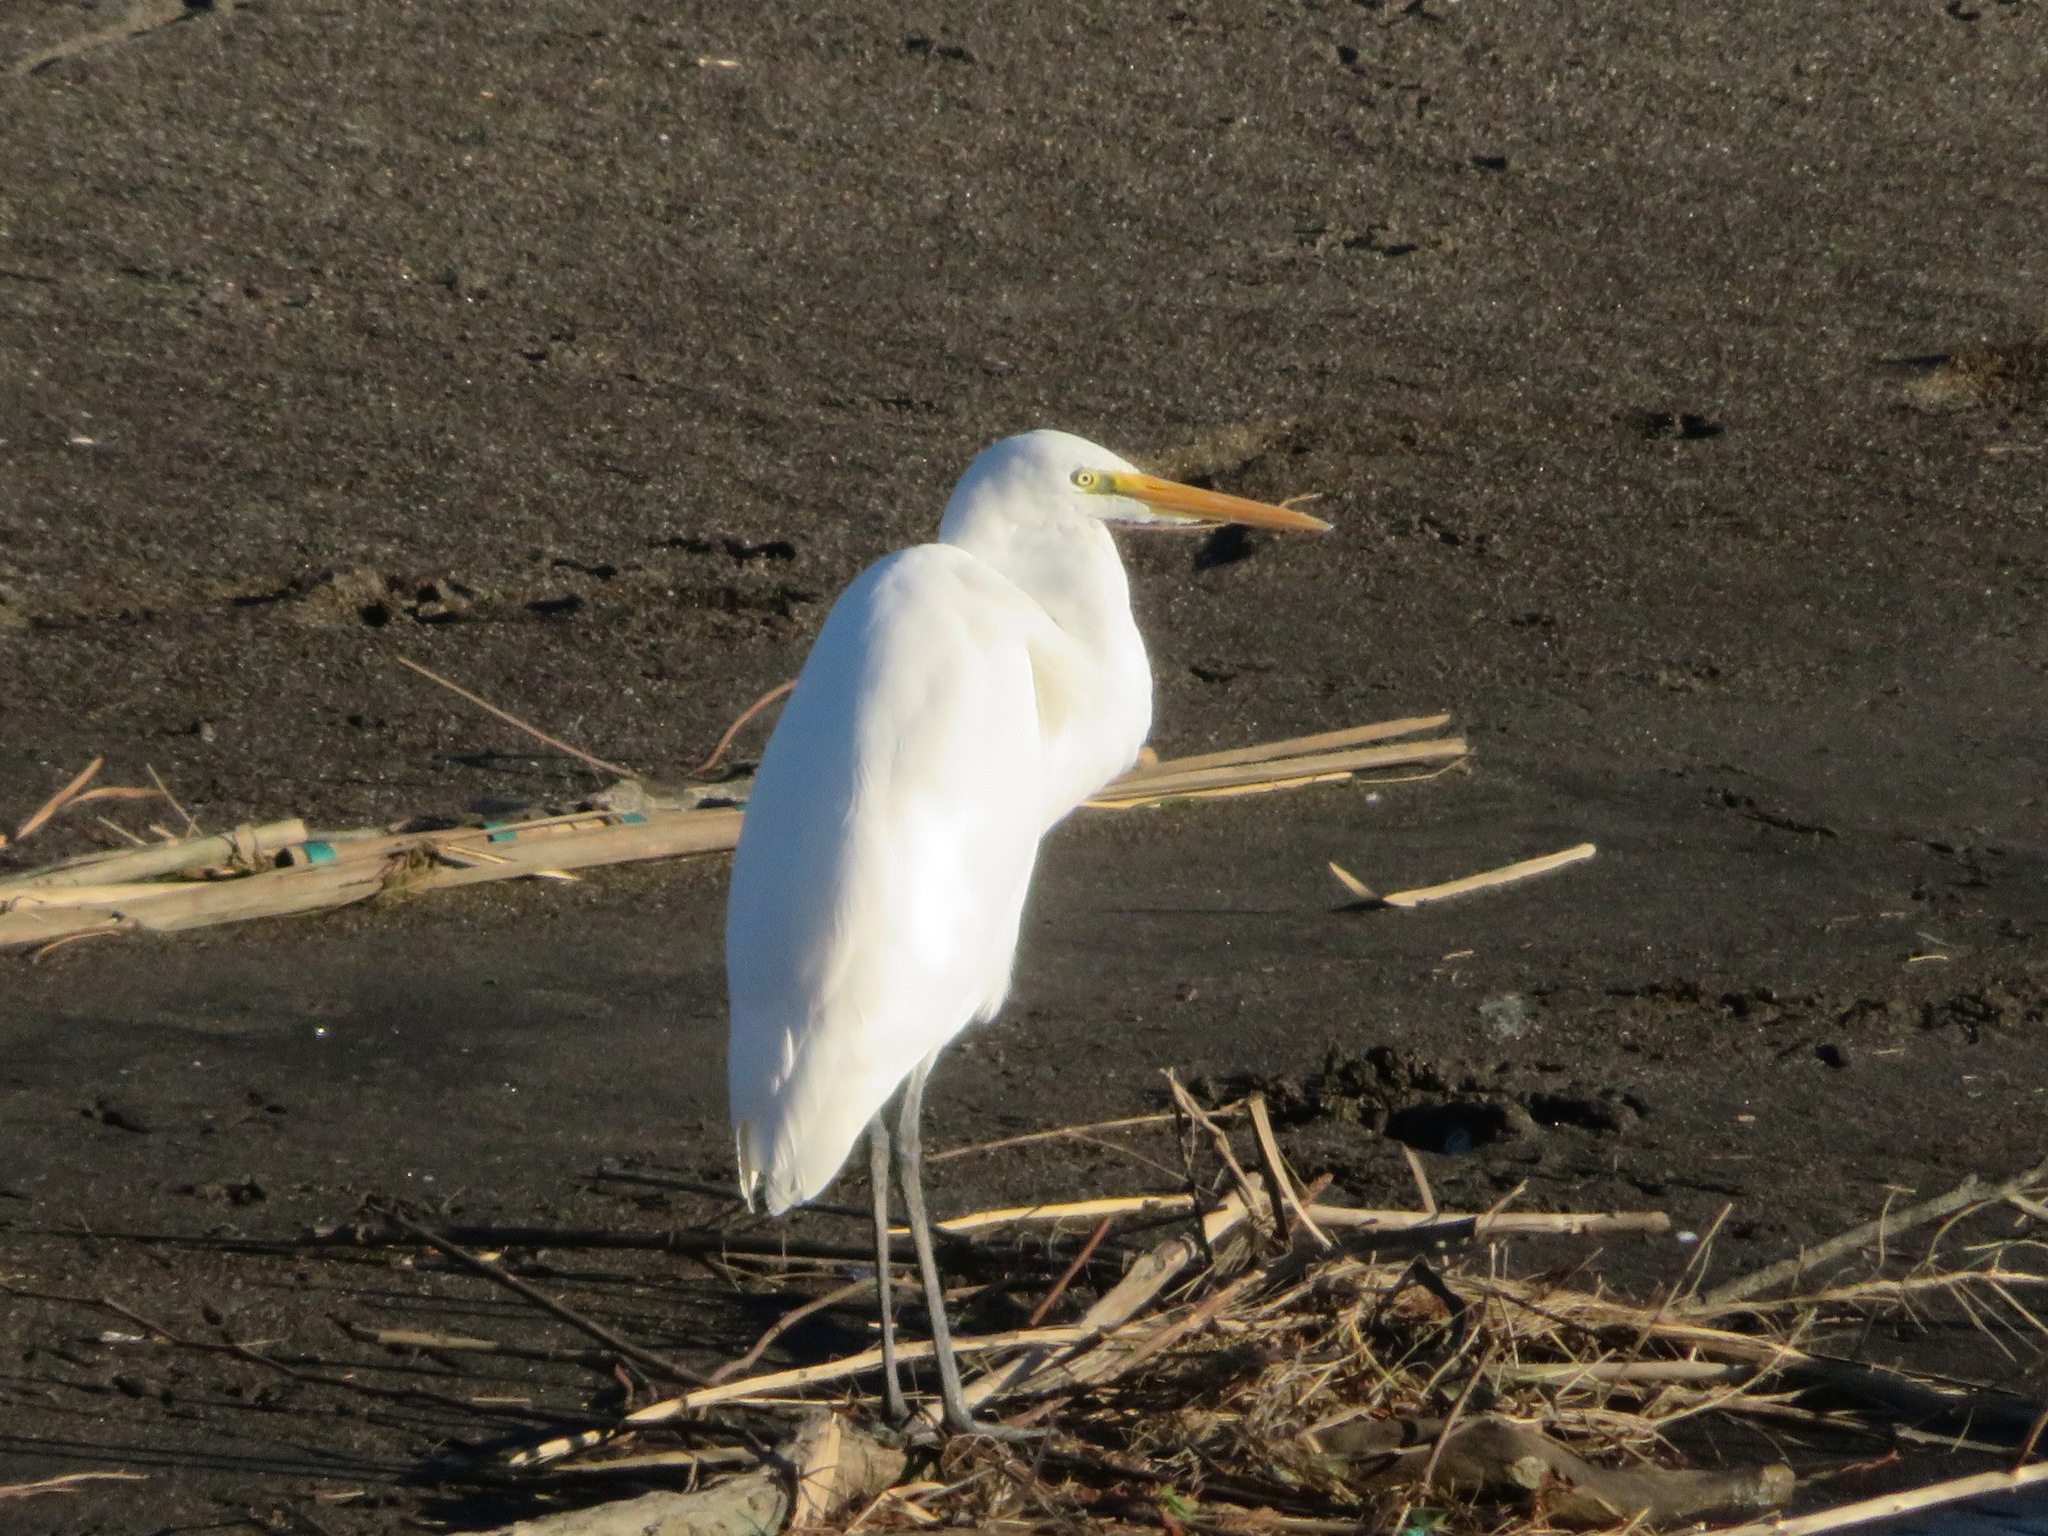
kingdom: Animalia
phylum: Chordata
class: Aves
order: Pelecaniformes
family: Ardeidae
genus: Ardea
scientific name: Ardea alba
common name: Great egret
